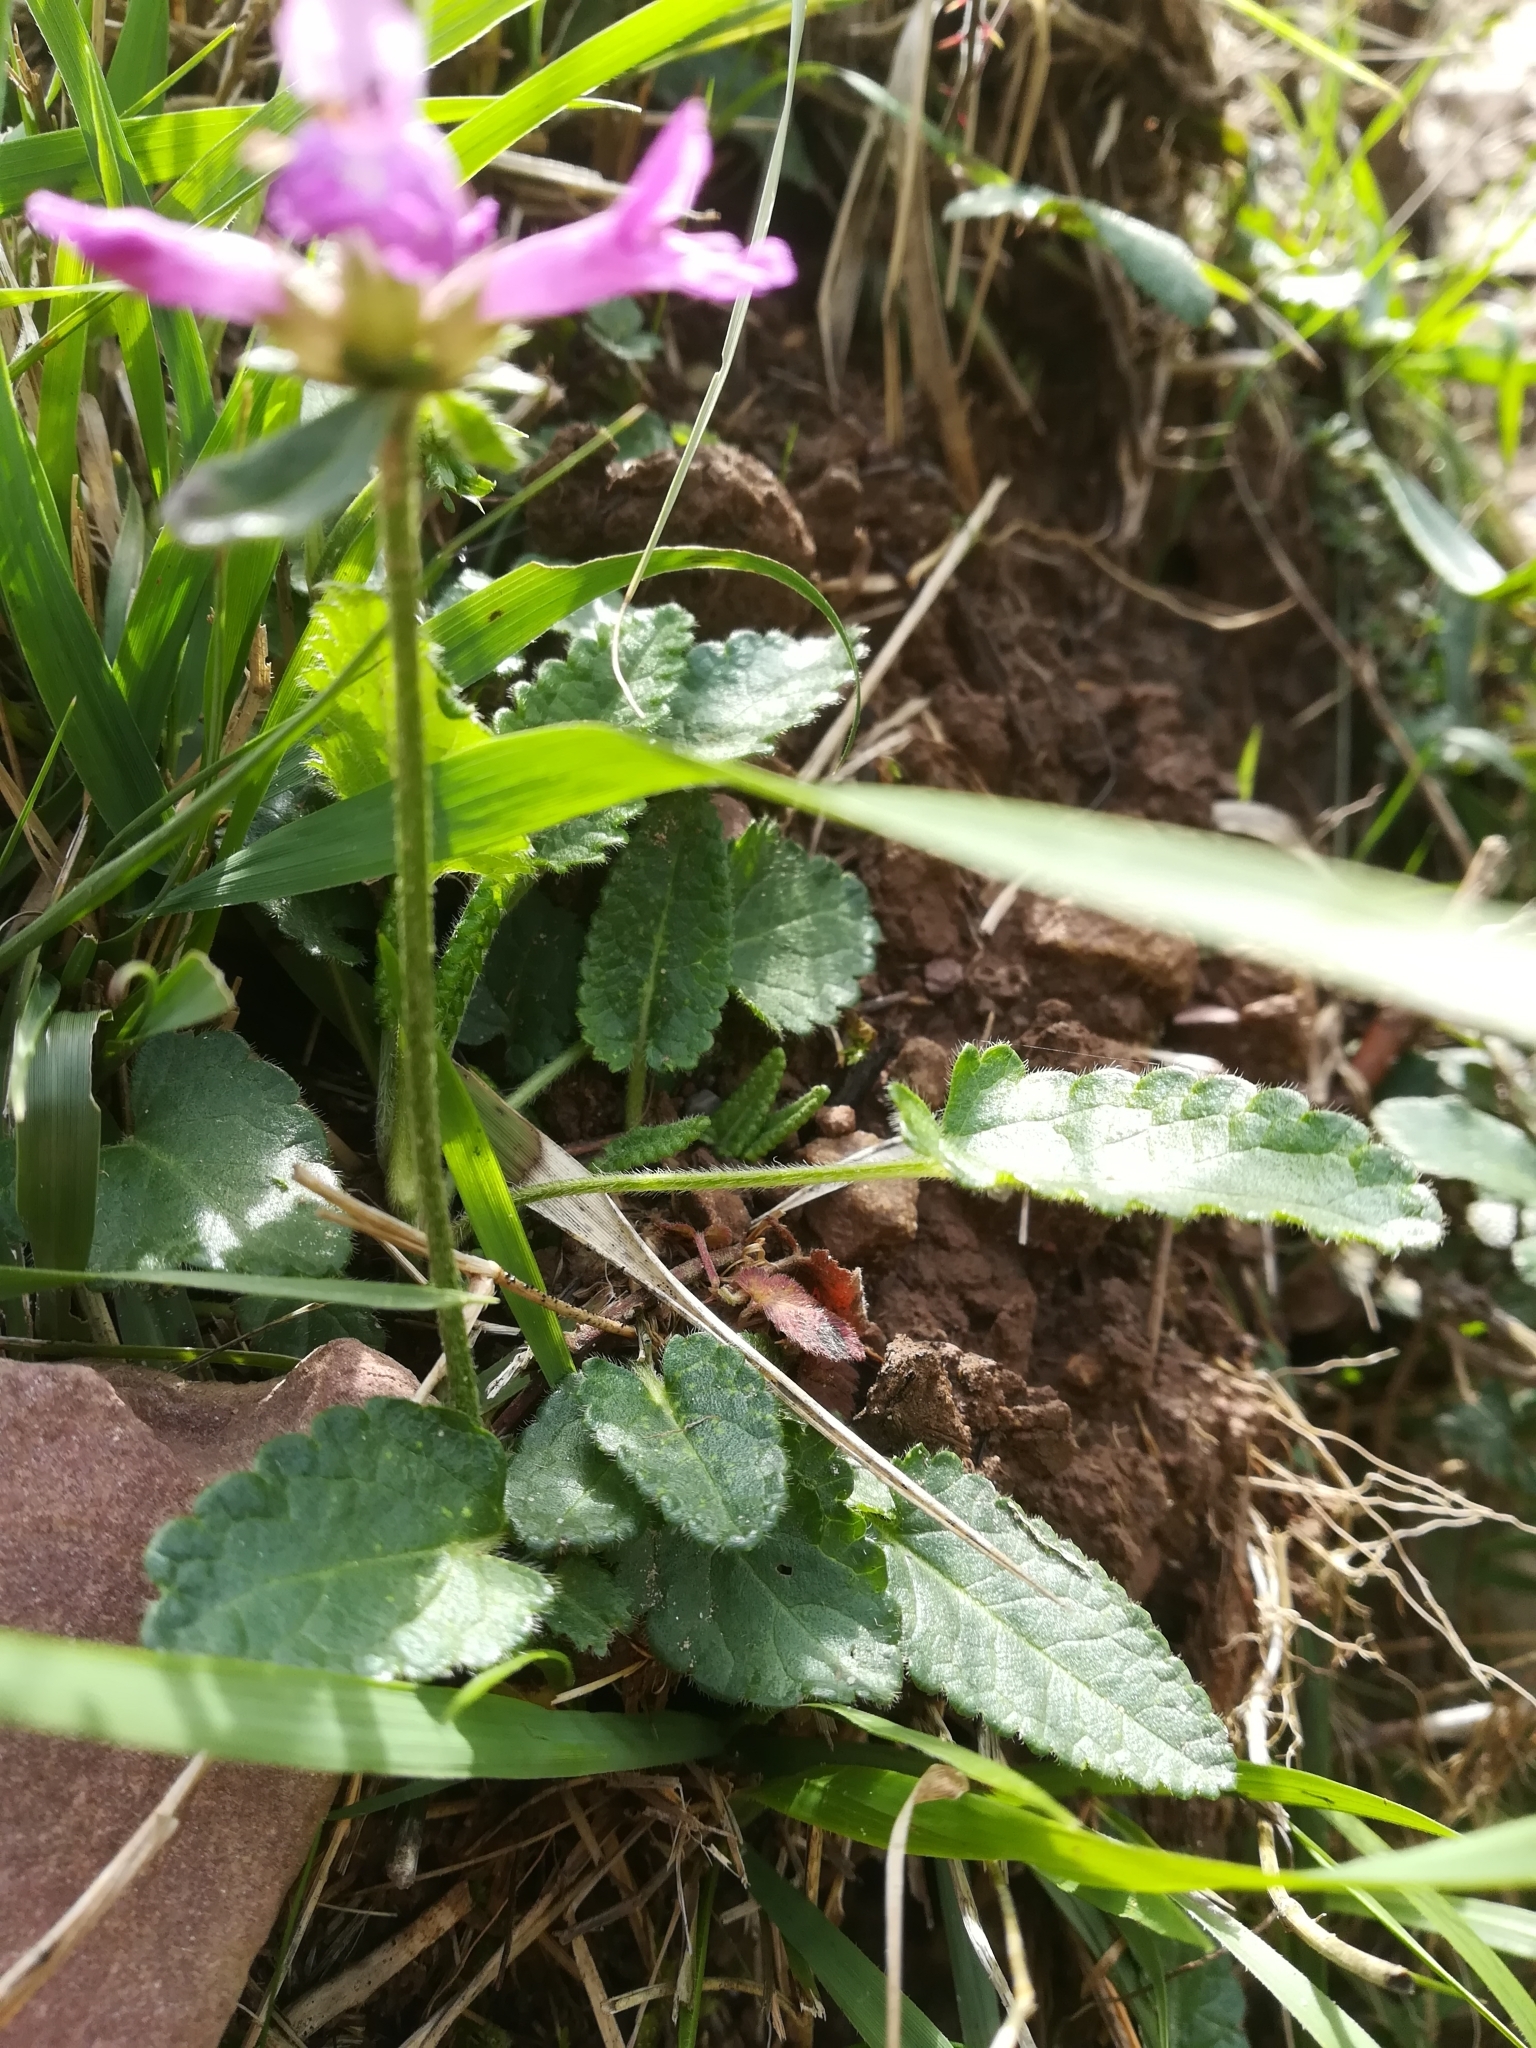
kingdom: Plantae
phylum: Tracheophyta
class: Magnoliopsida
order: Lamiales
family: Lamiaceae
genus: Betonica
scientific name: Betonica officinalis
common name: Bishop's-wort
